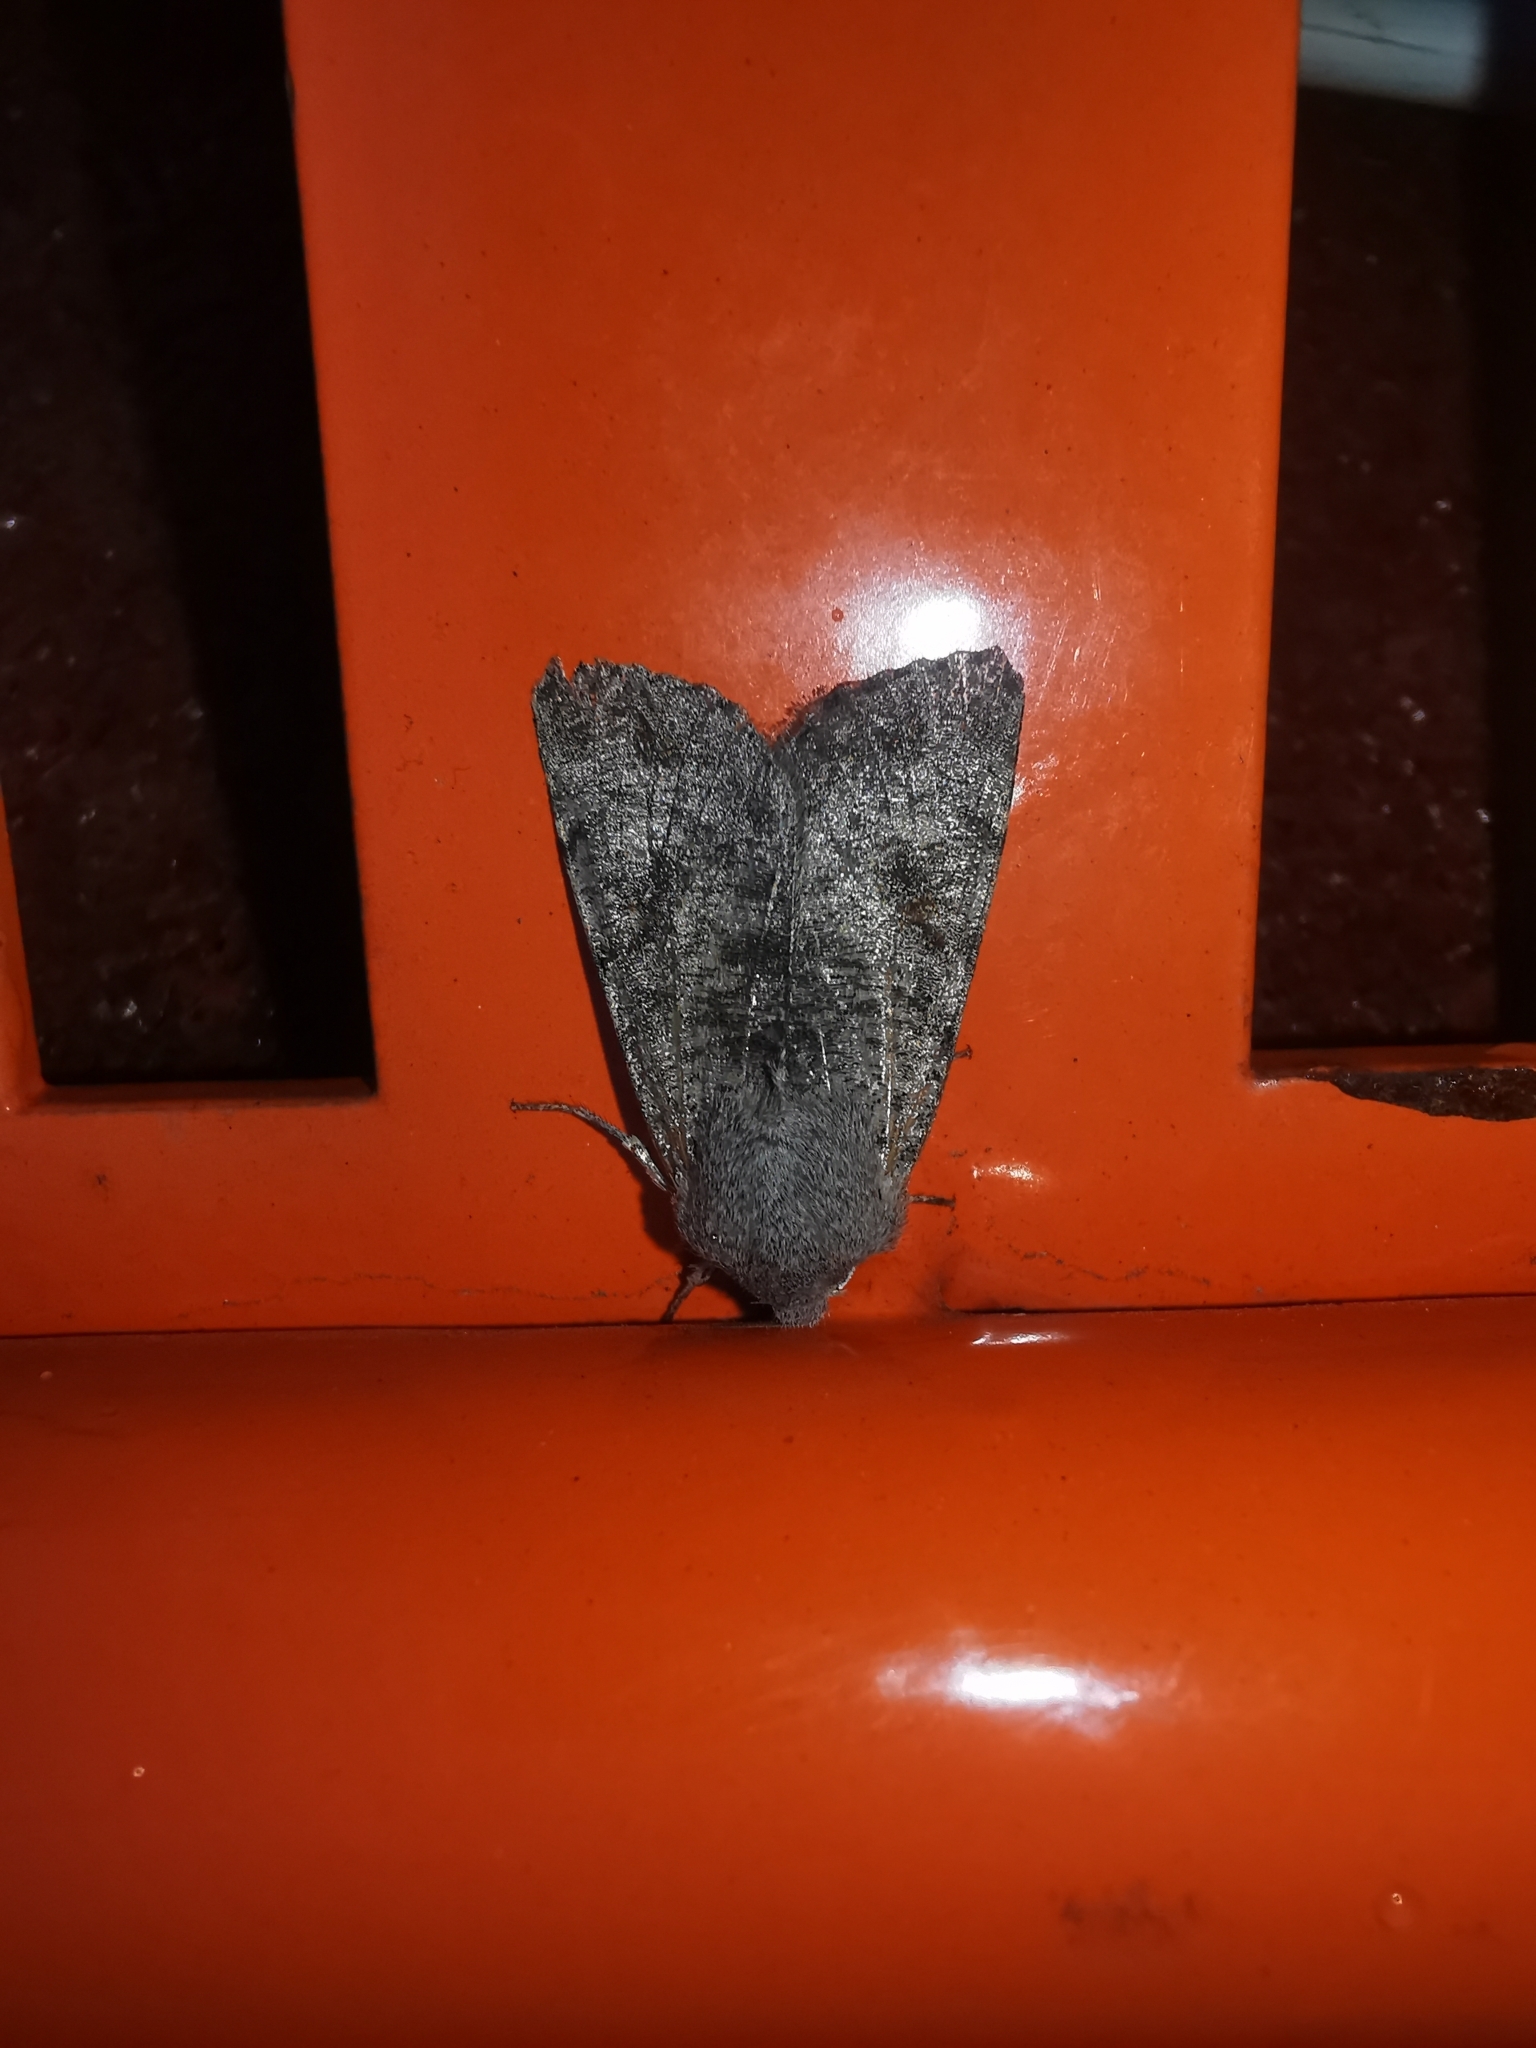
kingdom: Animalia
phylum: Arthropoda
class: Insecta
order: Lepidoptera
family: Noctuidae
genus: Orthosia
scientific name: Orthosia incerta
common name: Clouded drab
